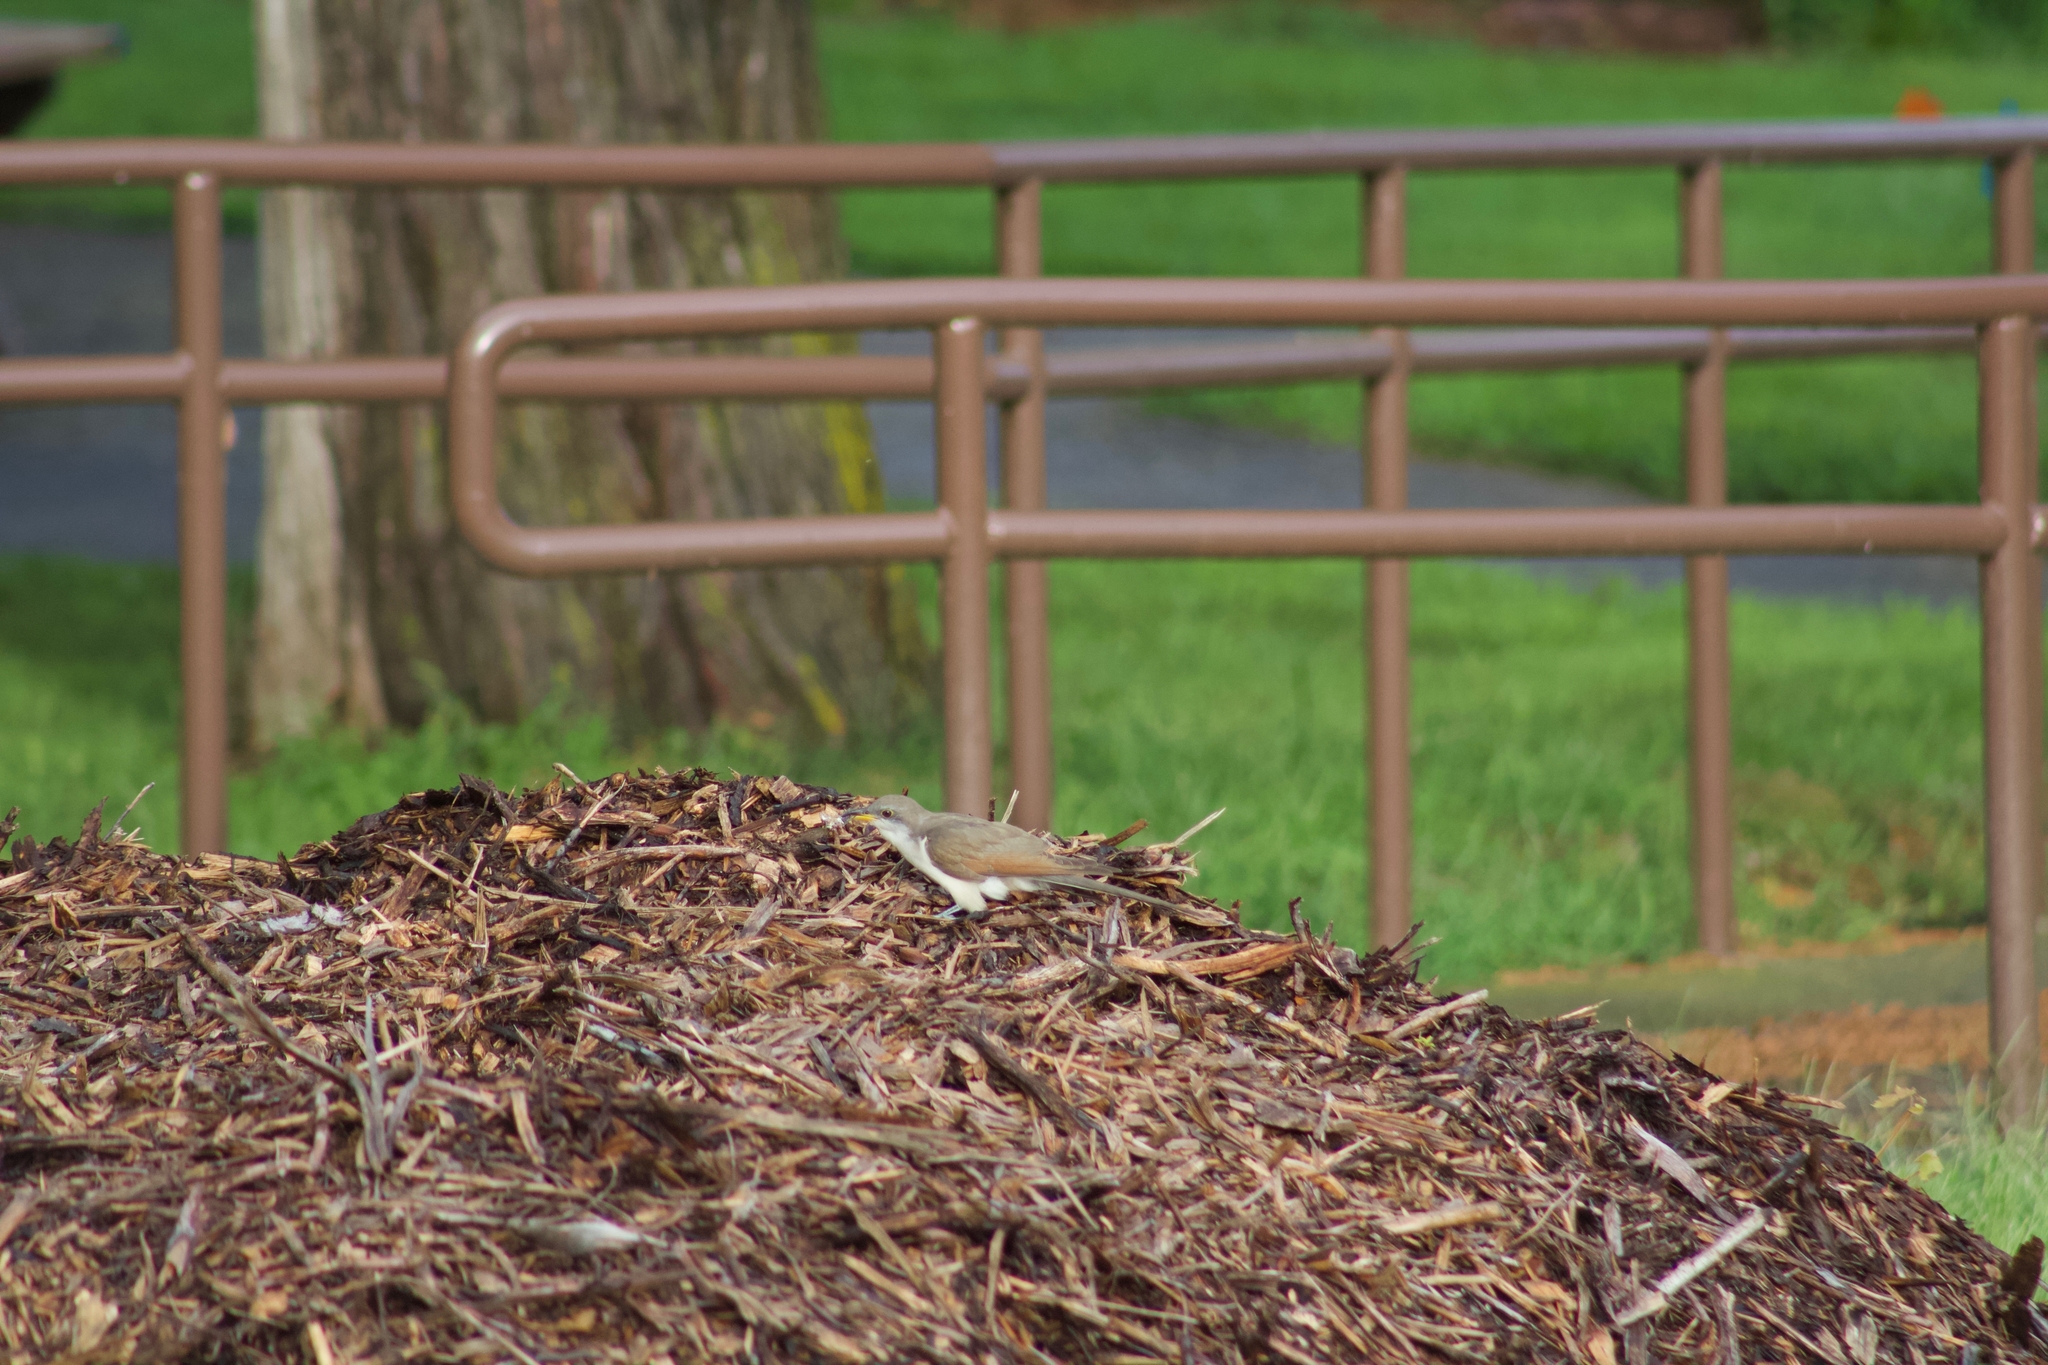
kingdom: Animalia
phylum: Chordata
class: Aves
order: Cuculiformes
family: Cuculidae
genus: Coccyzus
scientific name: Coccyzus americanus
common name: Yellow-billed cuckoo
